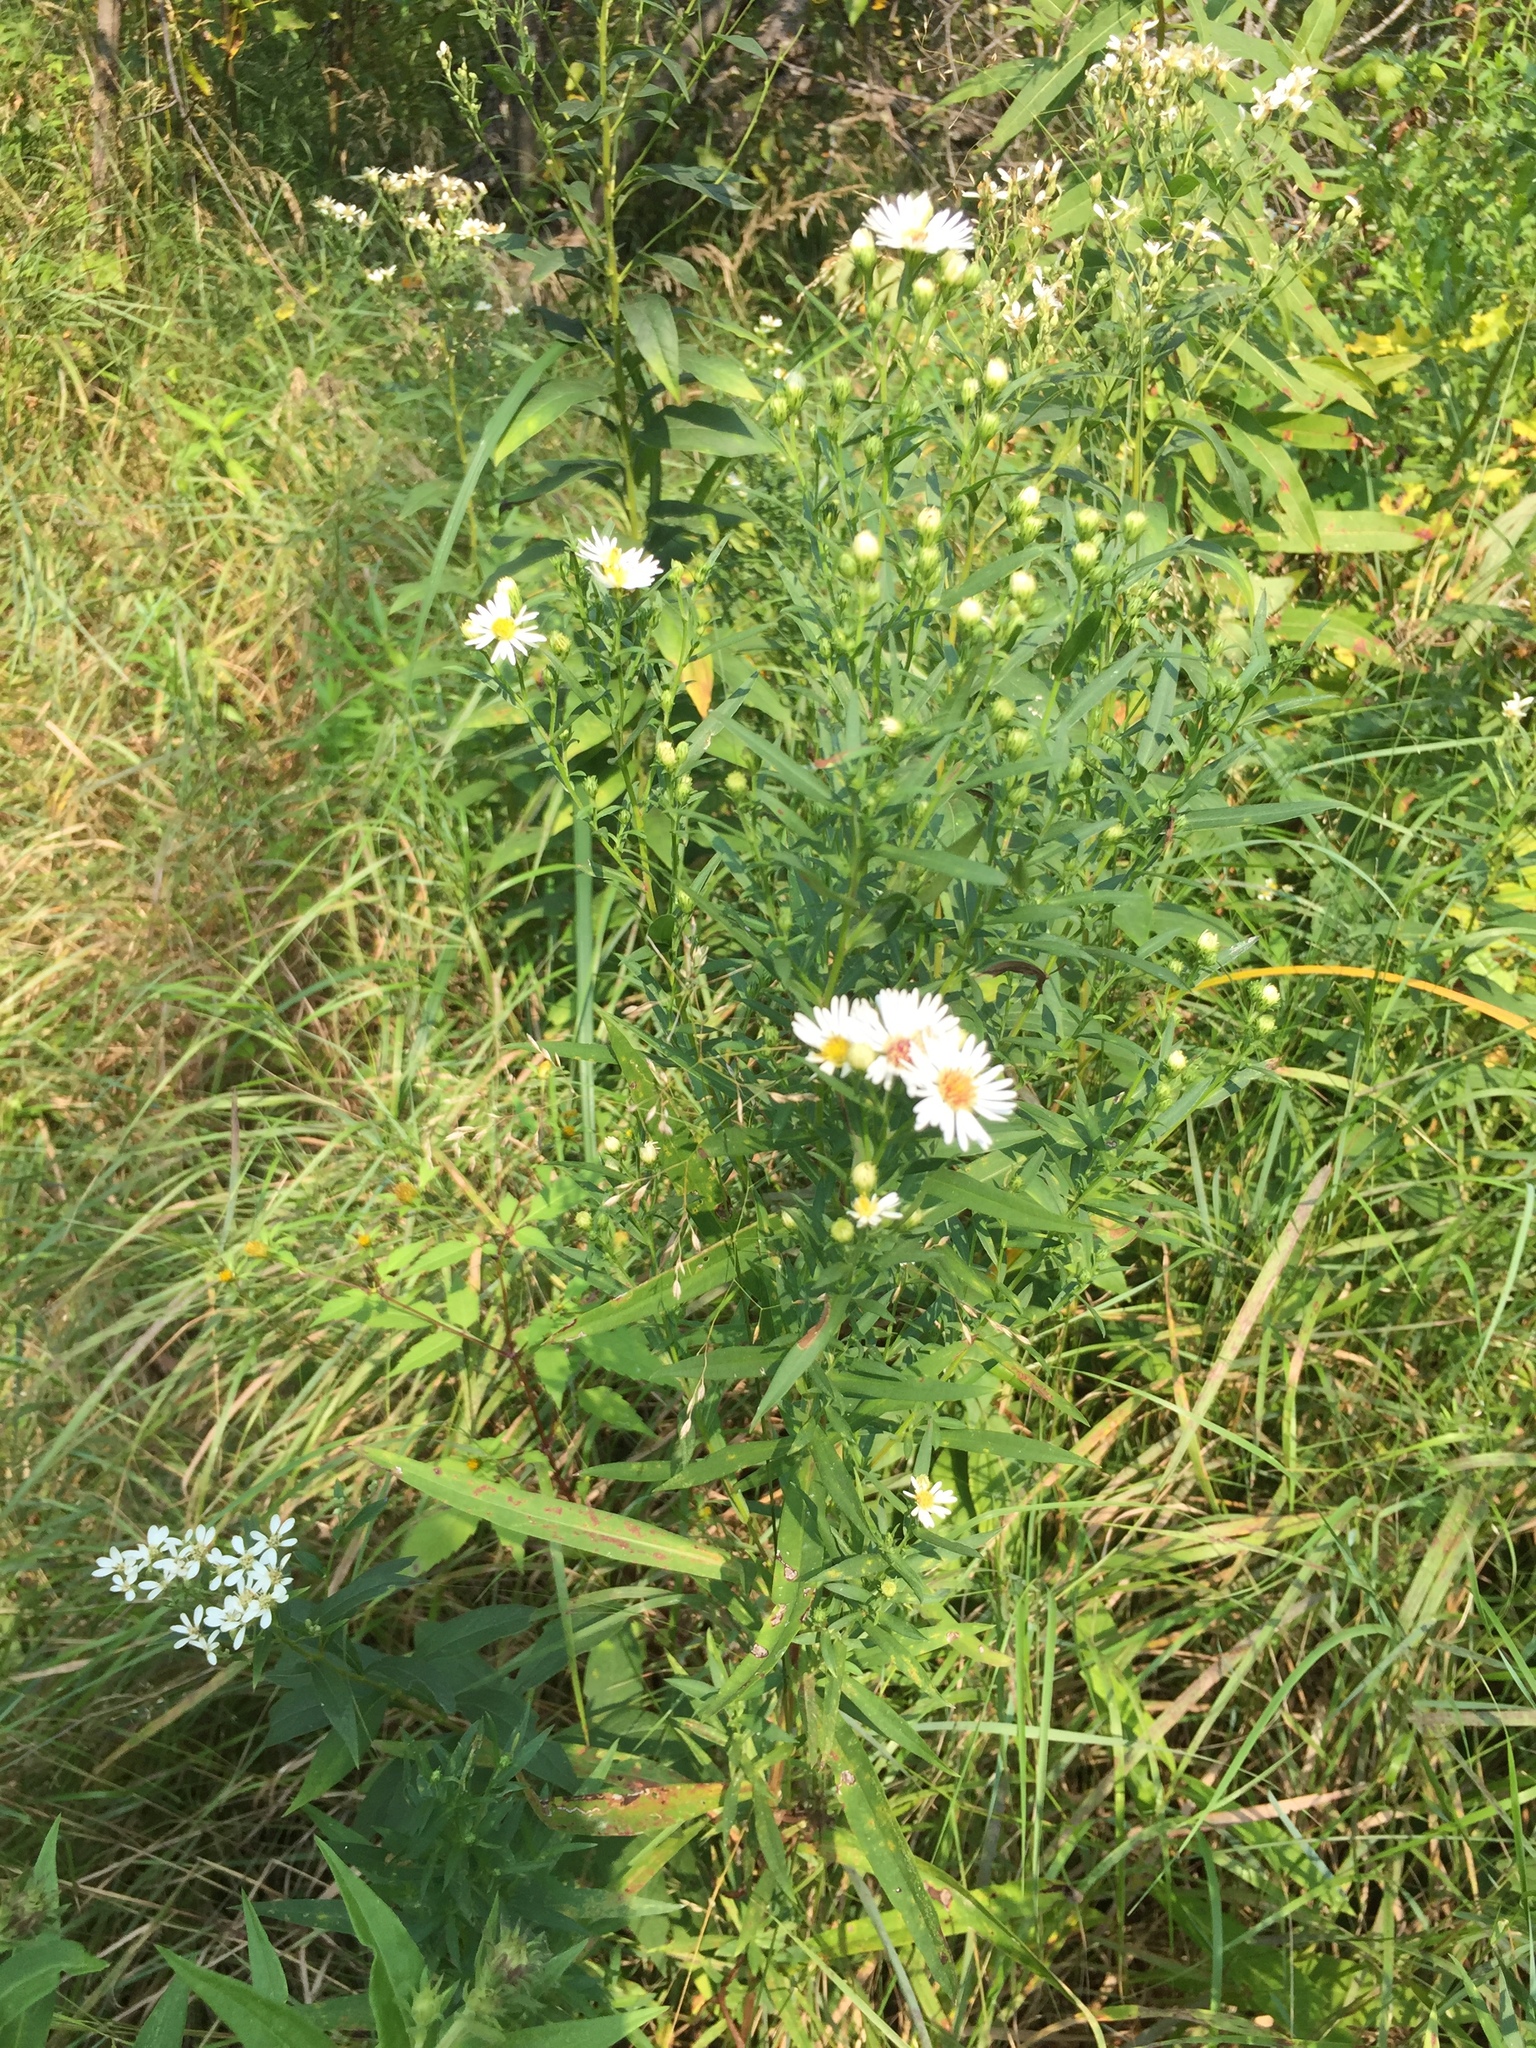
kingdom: Plantae
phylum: Tracheophyta
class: Magnoliopsida
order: Asterales
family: Asteraceae
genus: Symphyotrichum
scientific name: Symphyotrichum lanceolatum
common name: Panicled aster
